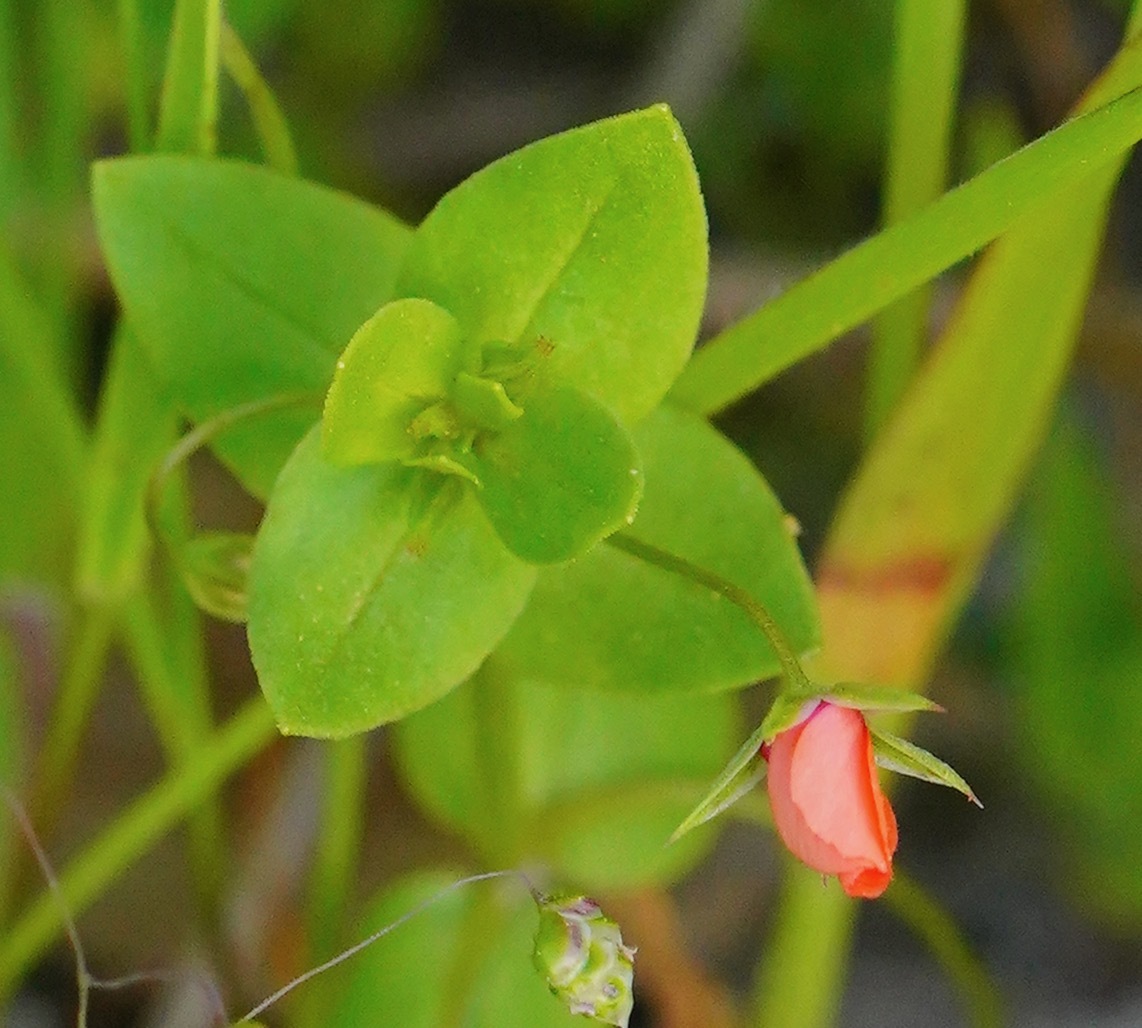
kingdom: Plantae
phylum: Tracheophyta
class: Magnoliopsida
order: Ericales
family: Primulaceae
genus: Lysimachia
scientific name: Lysimachia arvensis
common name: Scarlet pimpernel
